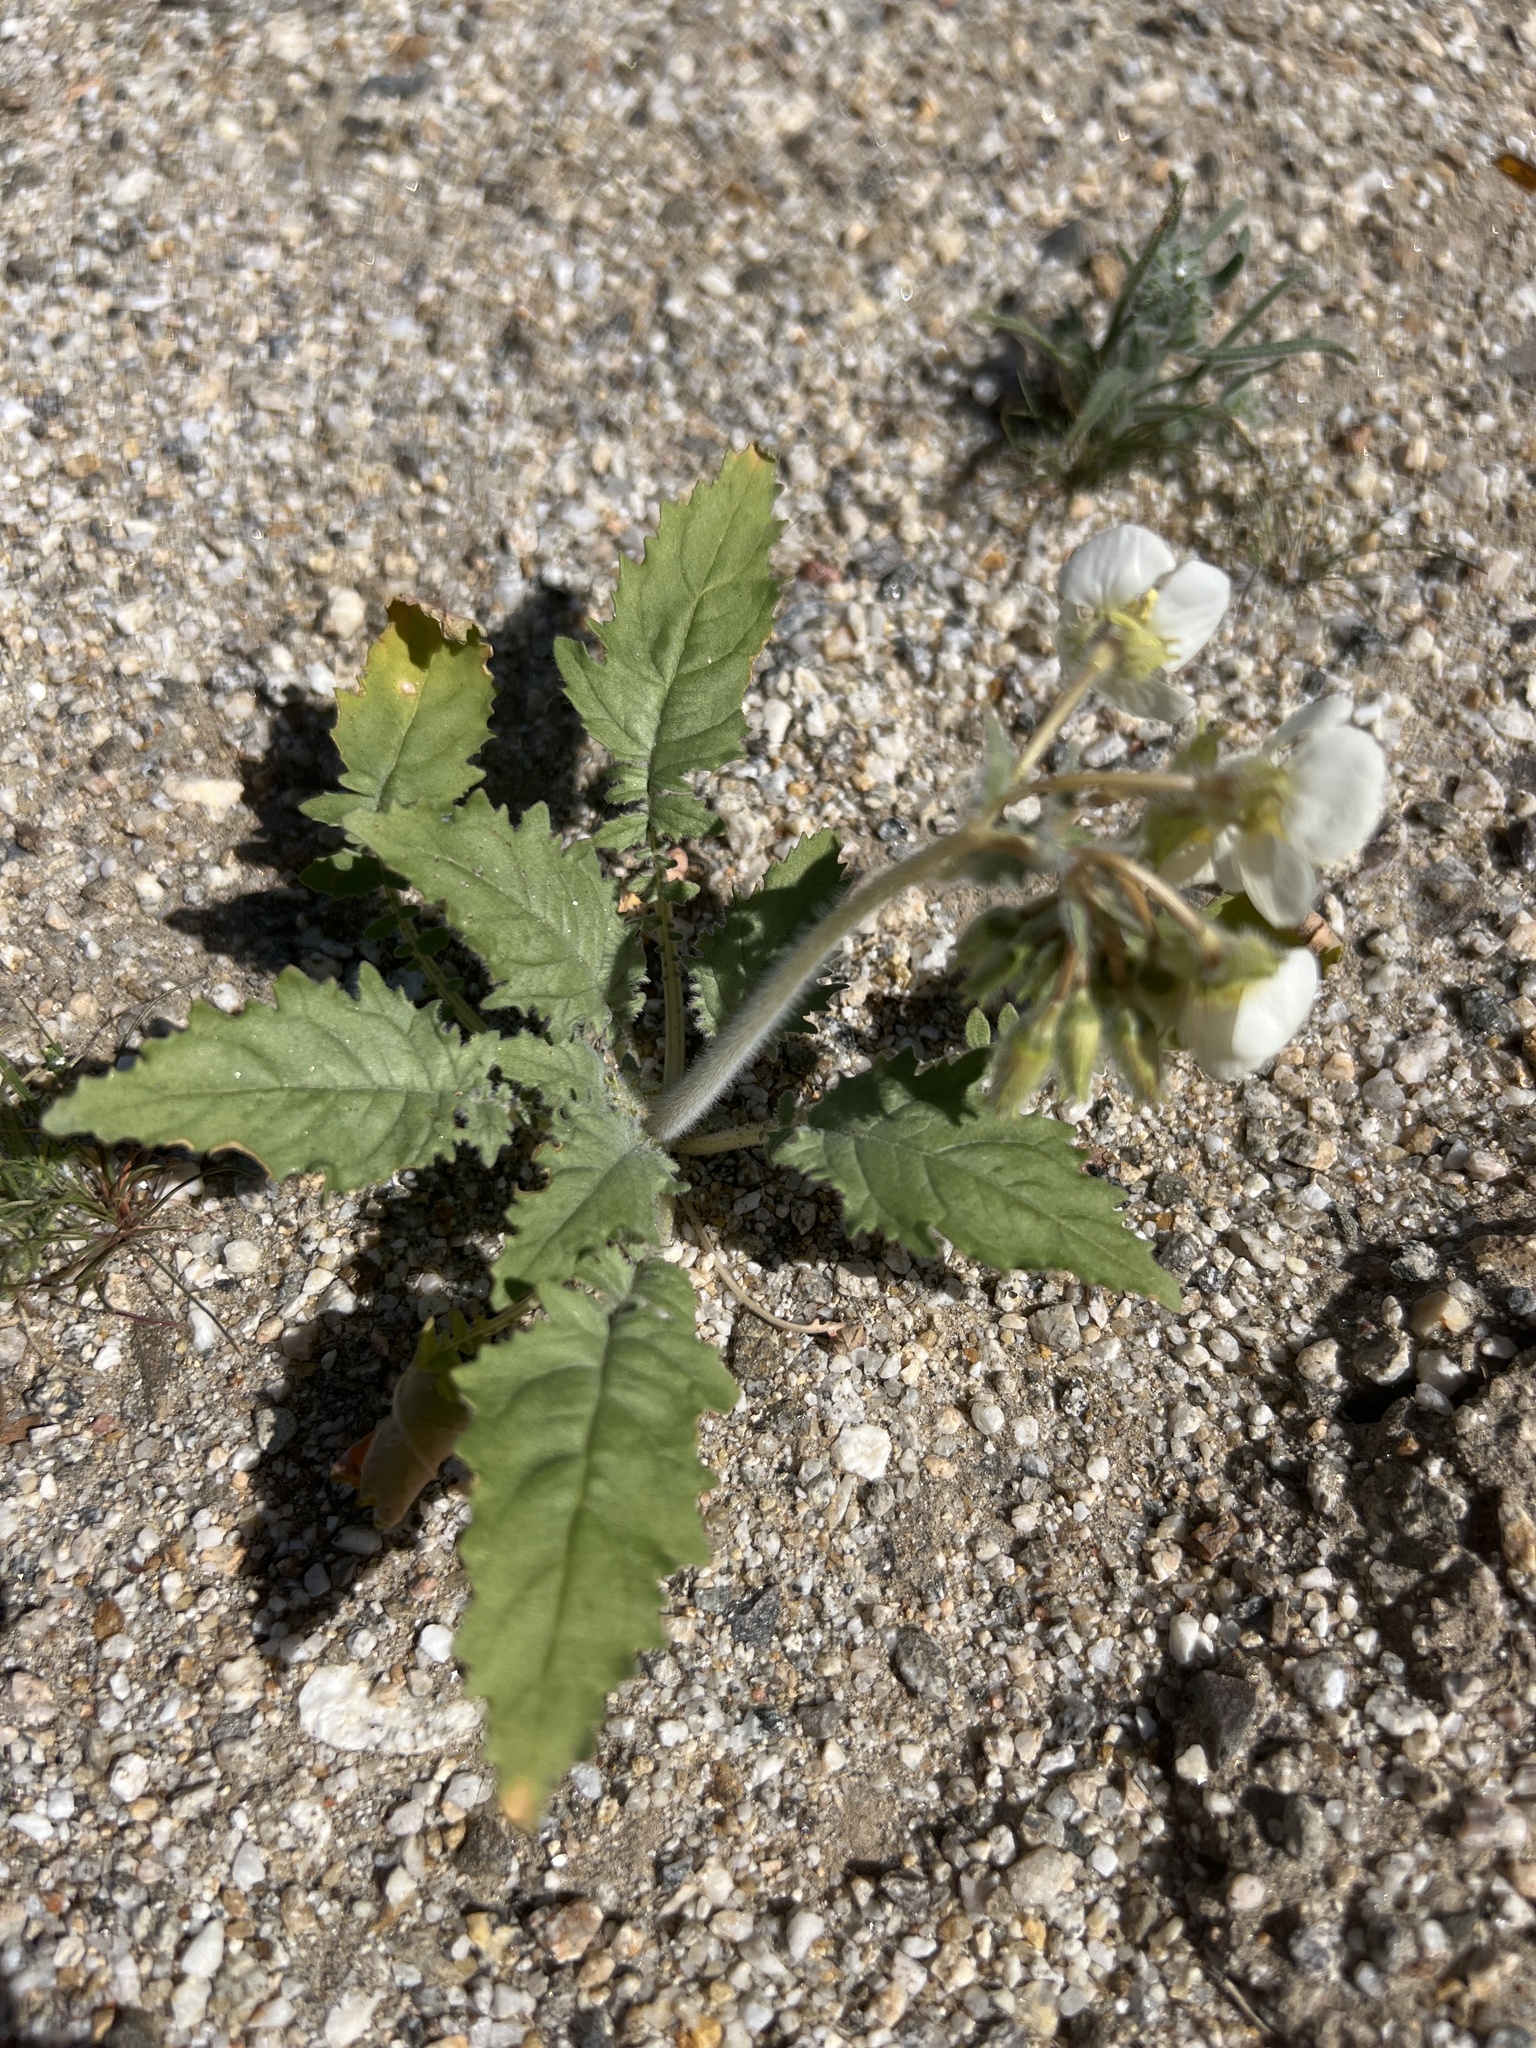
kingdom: Plantae
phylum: Tracheophyta
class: Magnoliopsida
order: Myrtales
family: Onagraceae
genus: Chylismia
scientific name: Chylismia claviformis
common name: Browneyes
